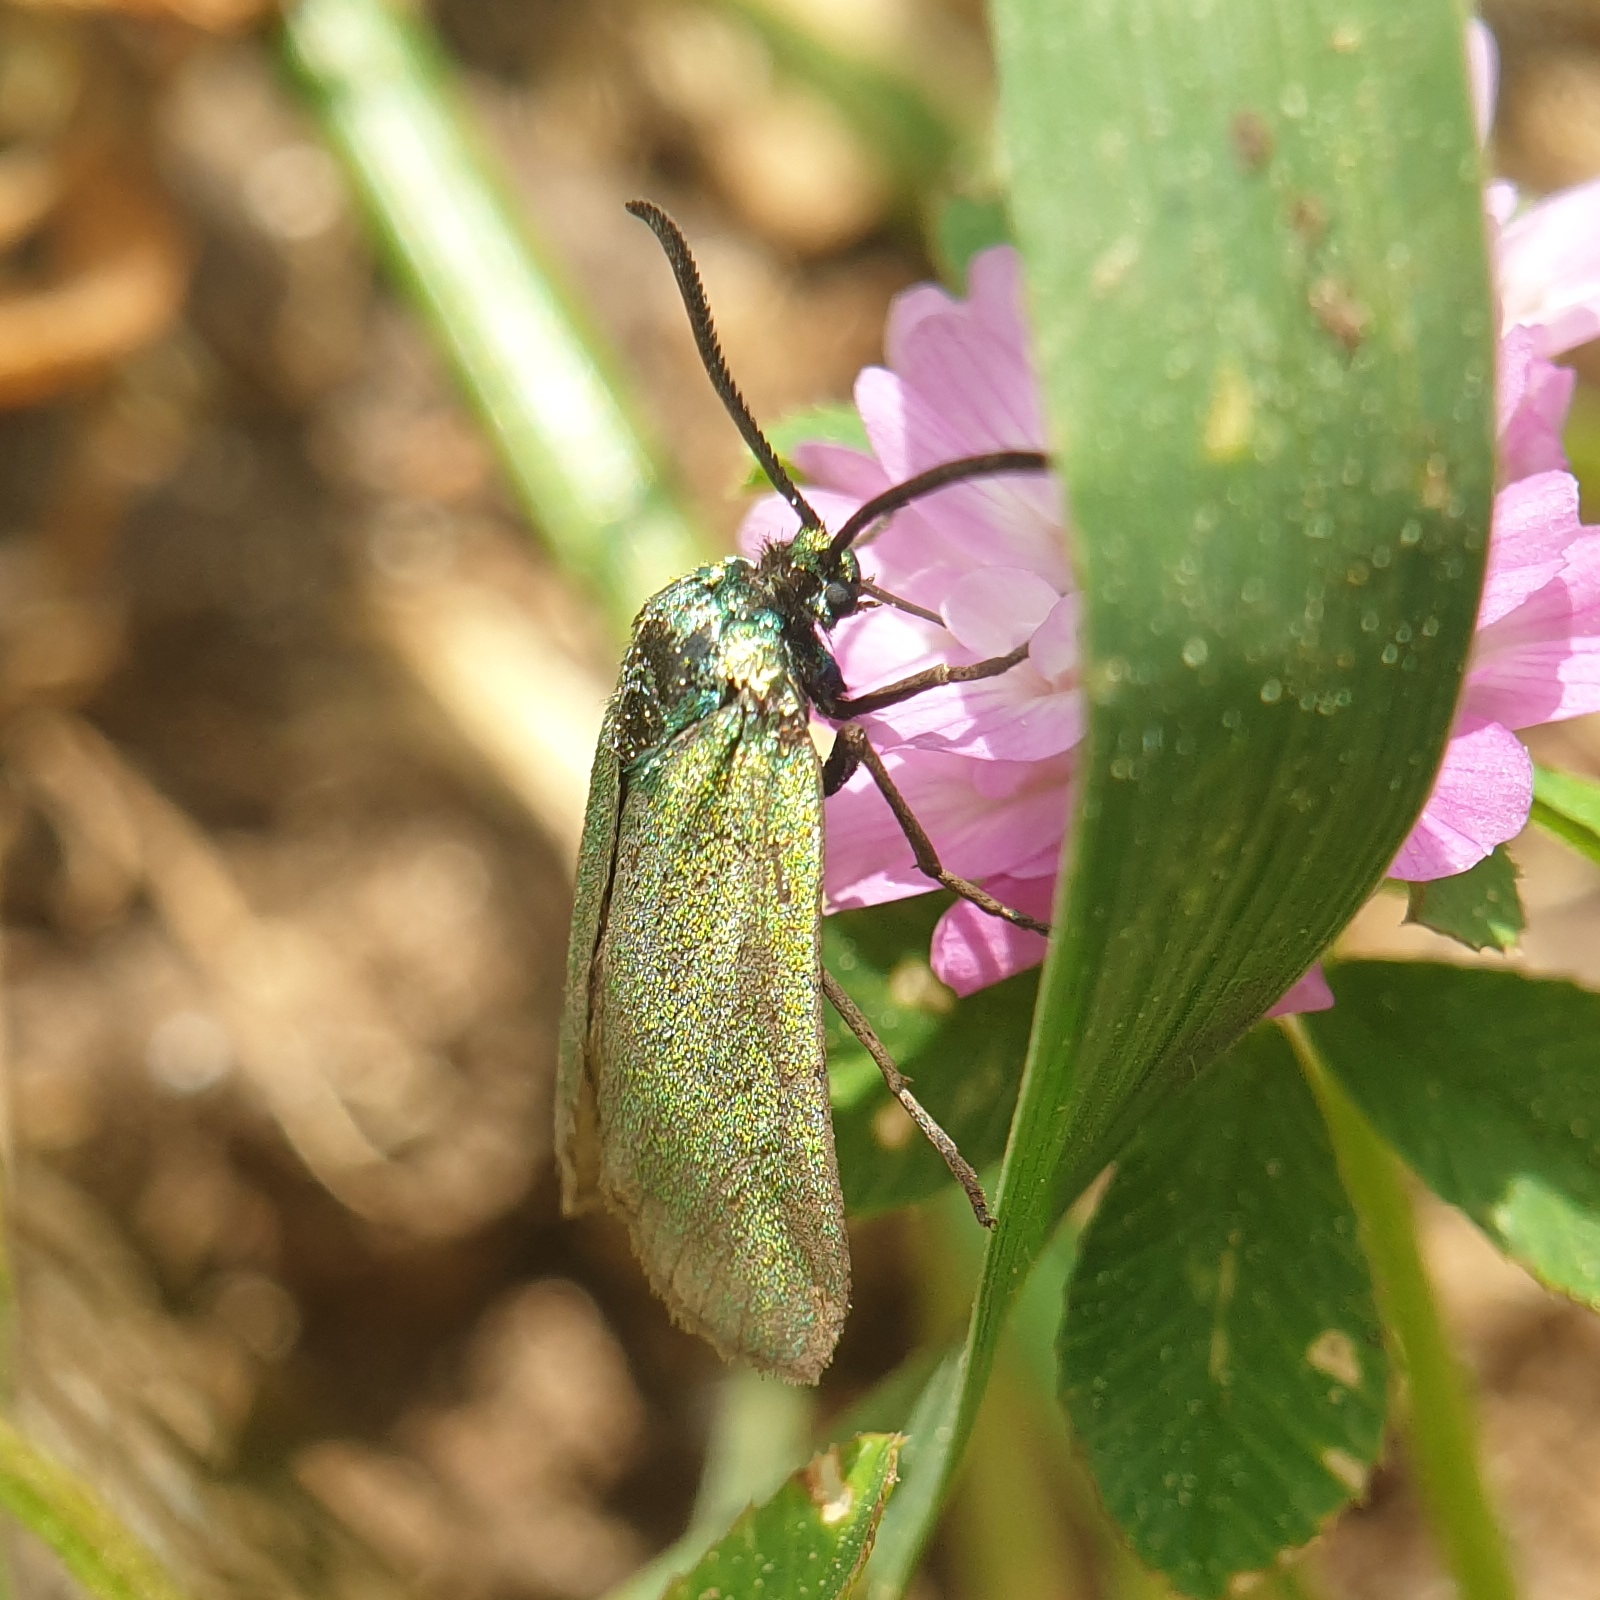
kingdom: Animalia
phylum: Arthropoda
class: Insecta
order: Lepidoptera
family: Zygaenidae
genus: Adscita
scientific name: Adscita statices
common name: Forester
